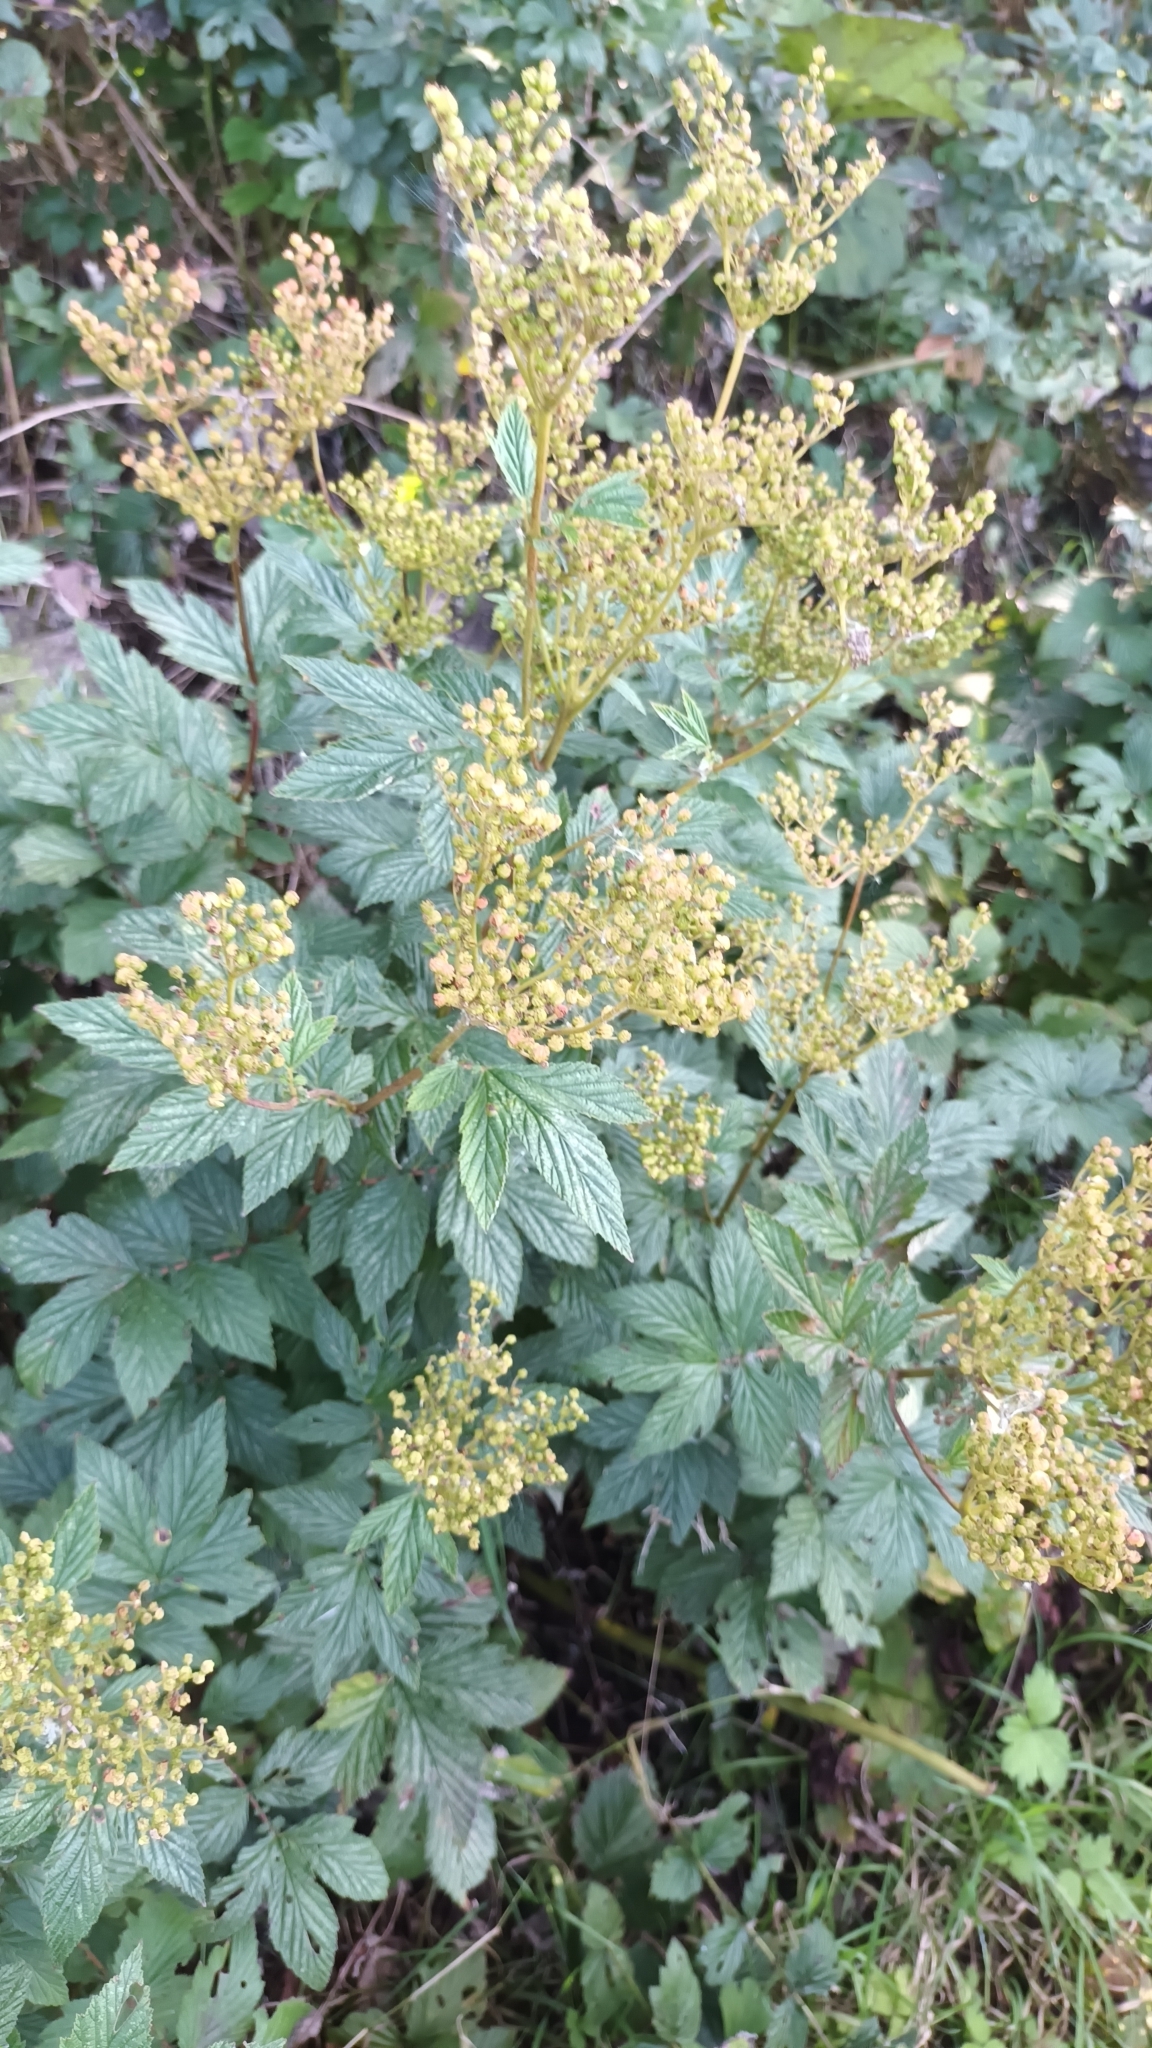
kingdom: Plantae
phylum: Tracheophyta
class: Magnoliopsida
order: Rosales
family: Rosaceae
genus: Filipendula
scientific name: Filipendula ulmaria
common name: Meadowsweet
